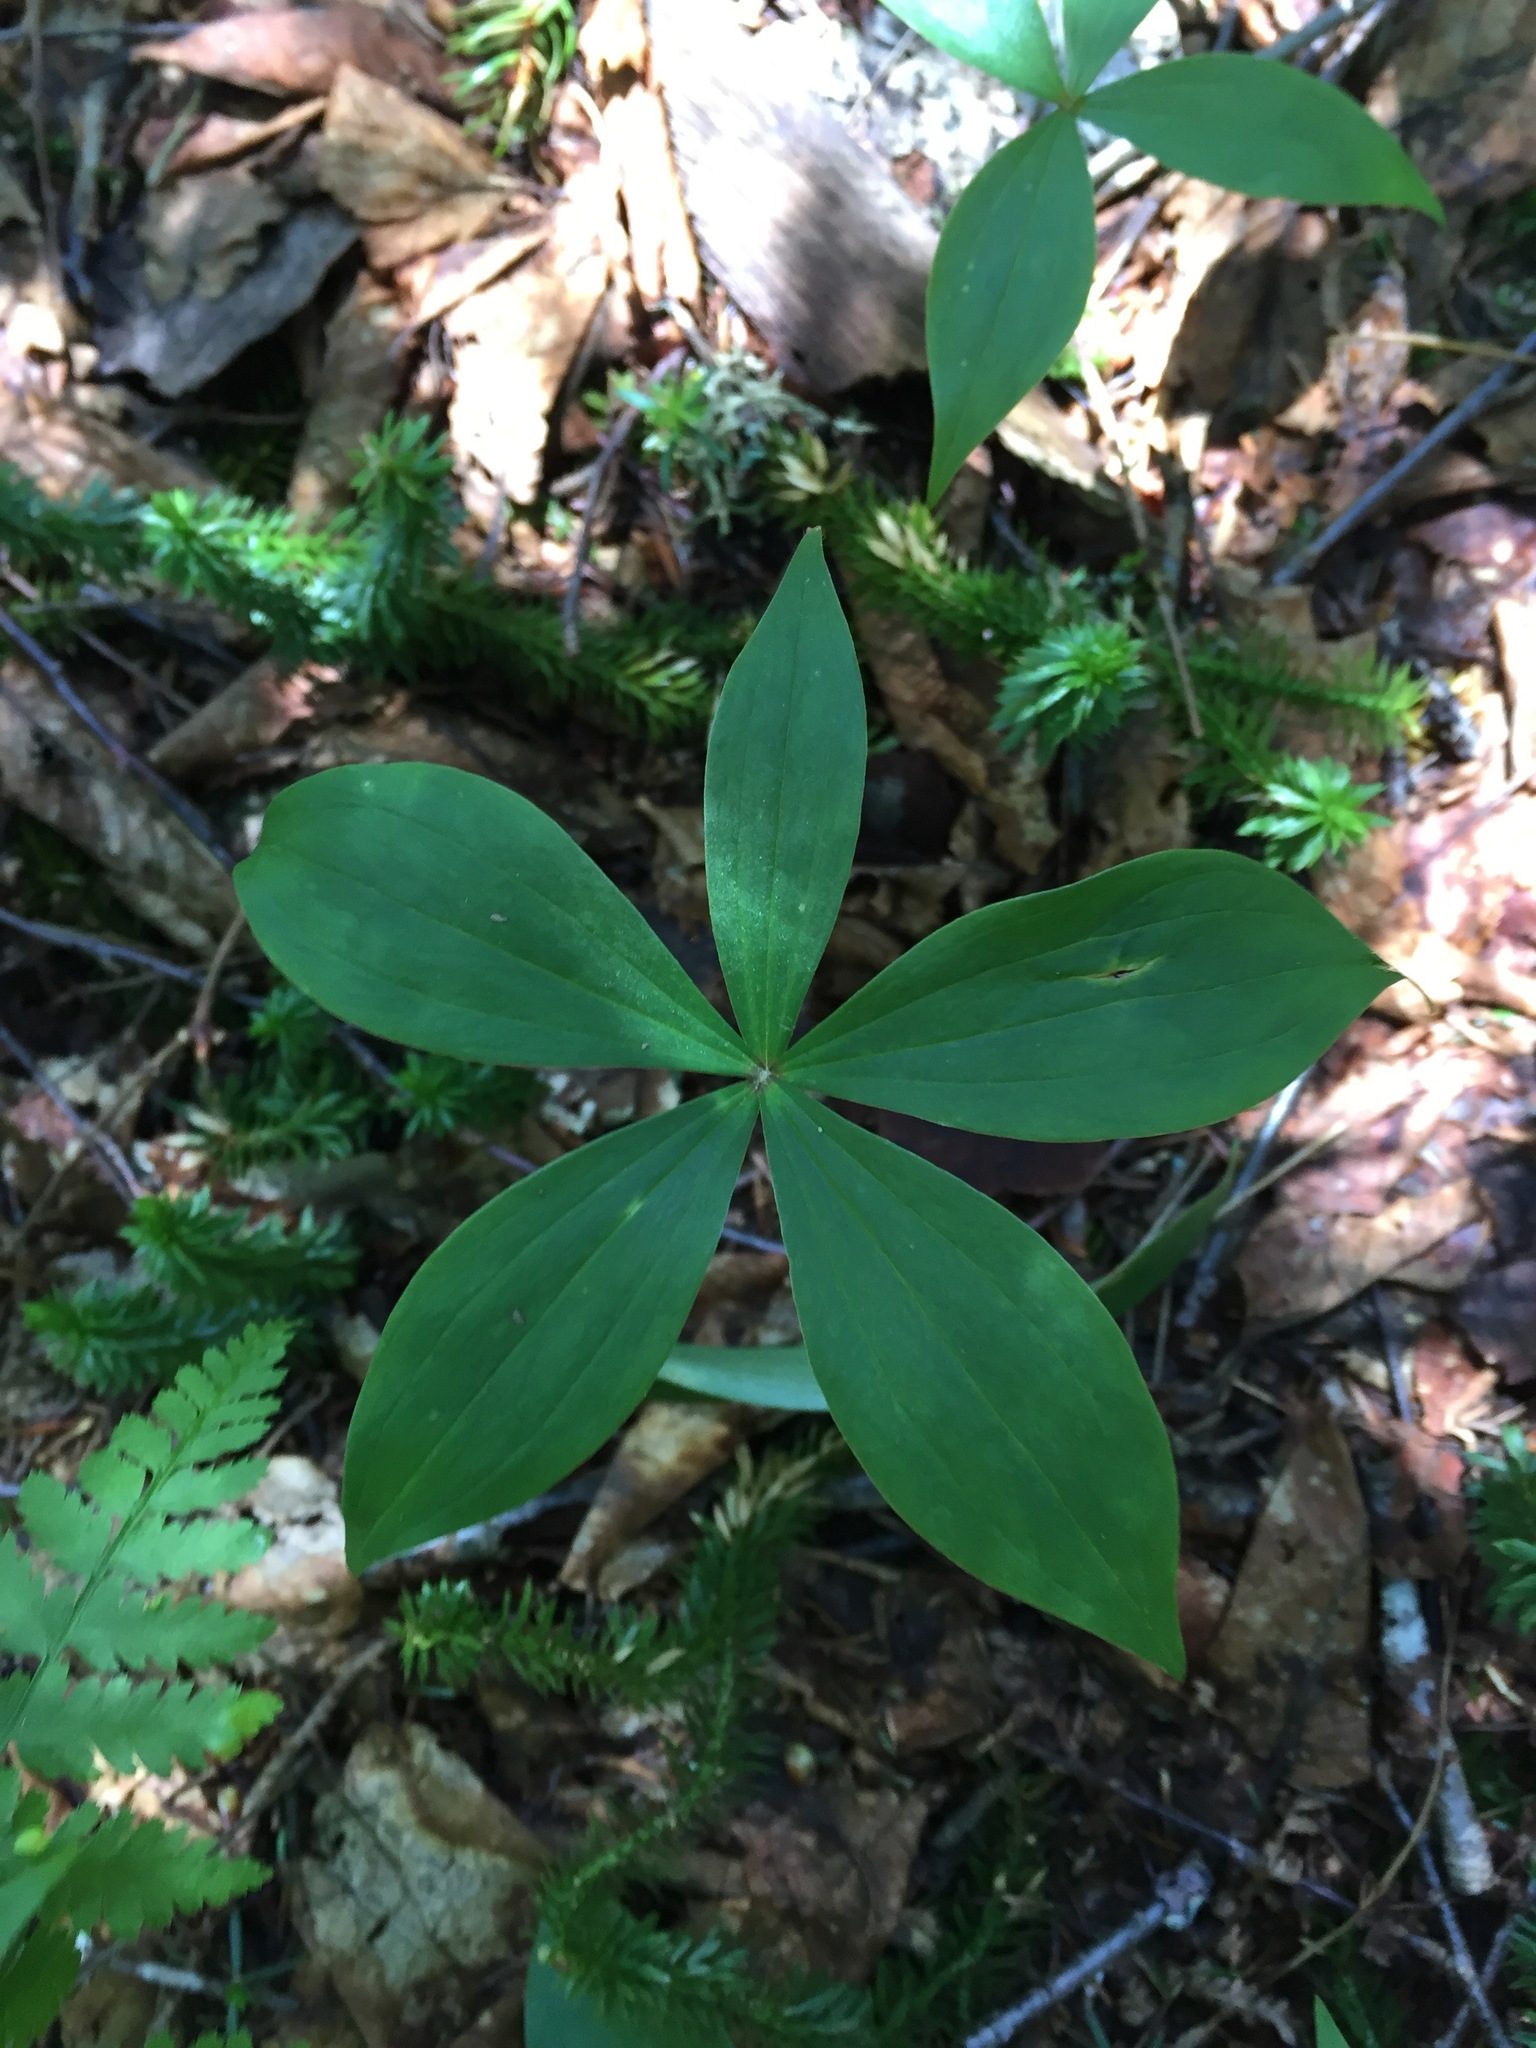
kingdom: Plantae
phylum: Tracheophyta
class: Liliopsida
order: Liliales
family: Liliaceae
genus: Medeola
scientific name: Medeola virginiana
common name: Indian cucumber-root
